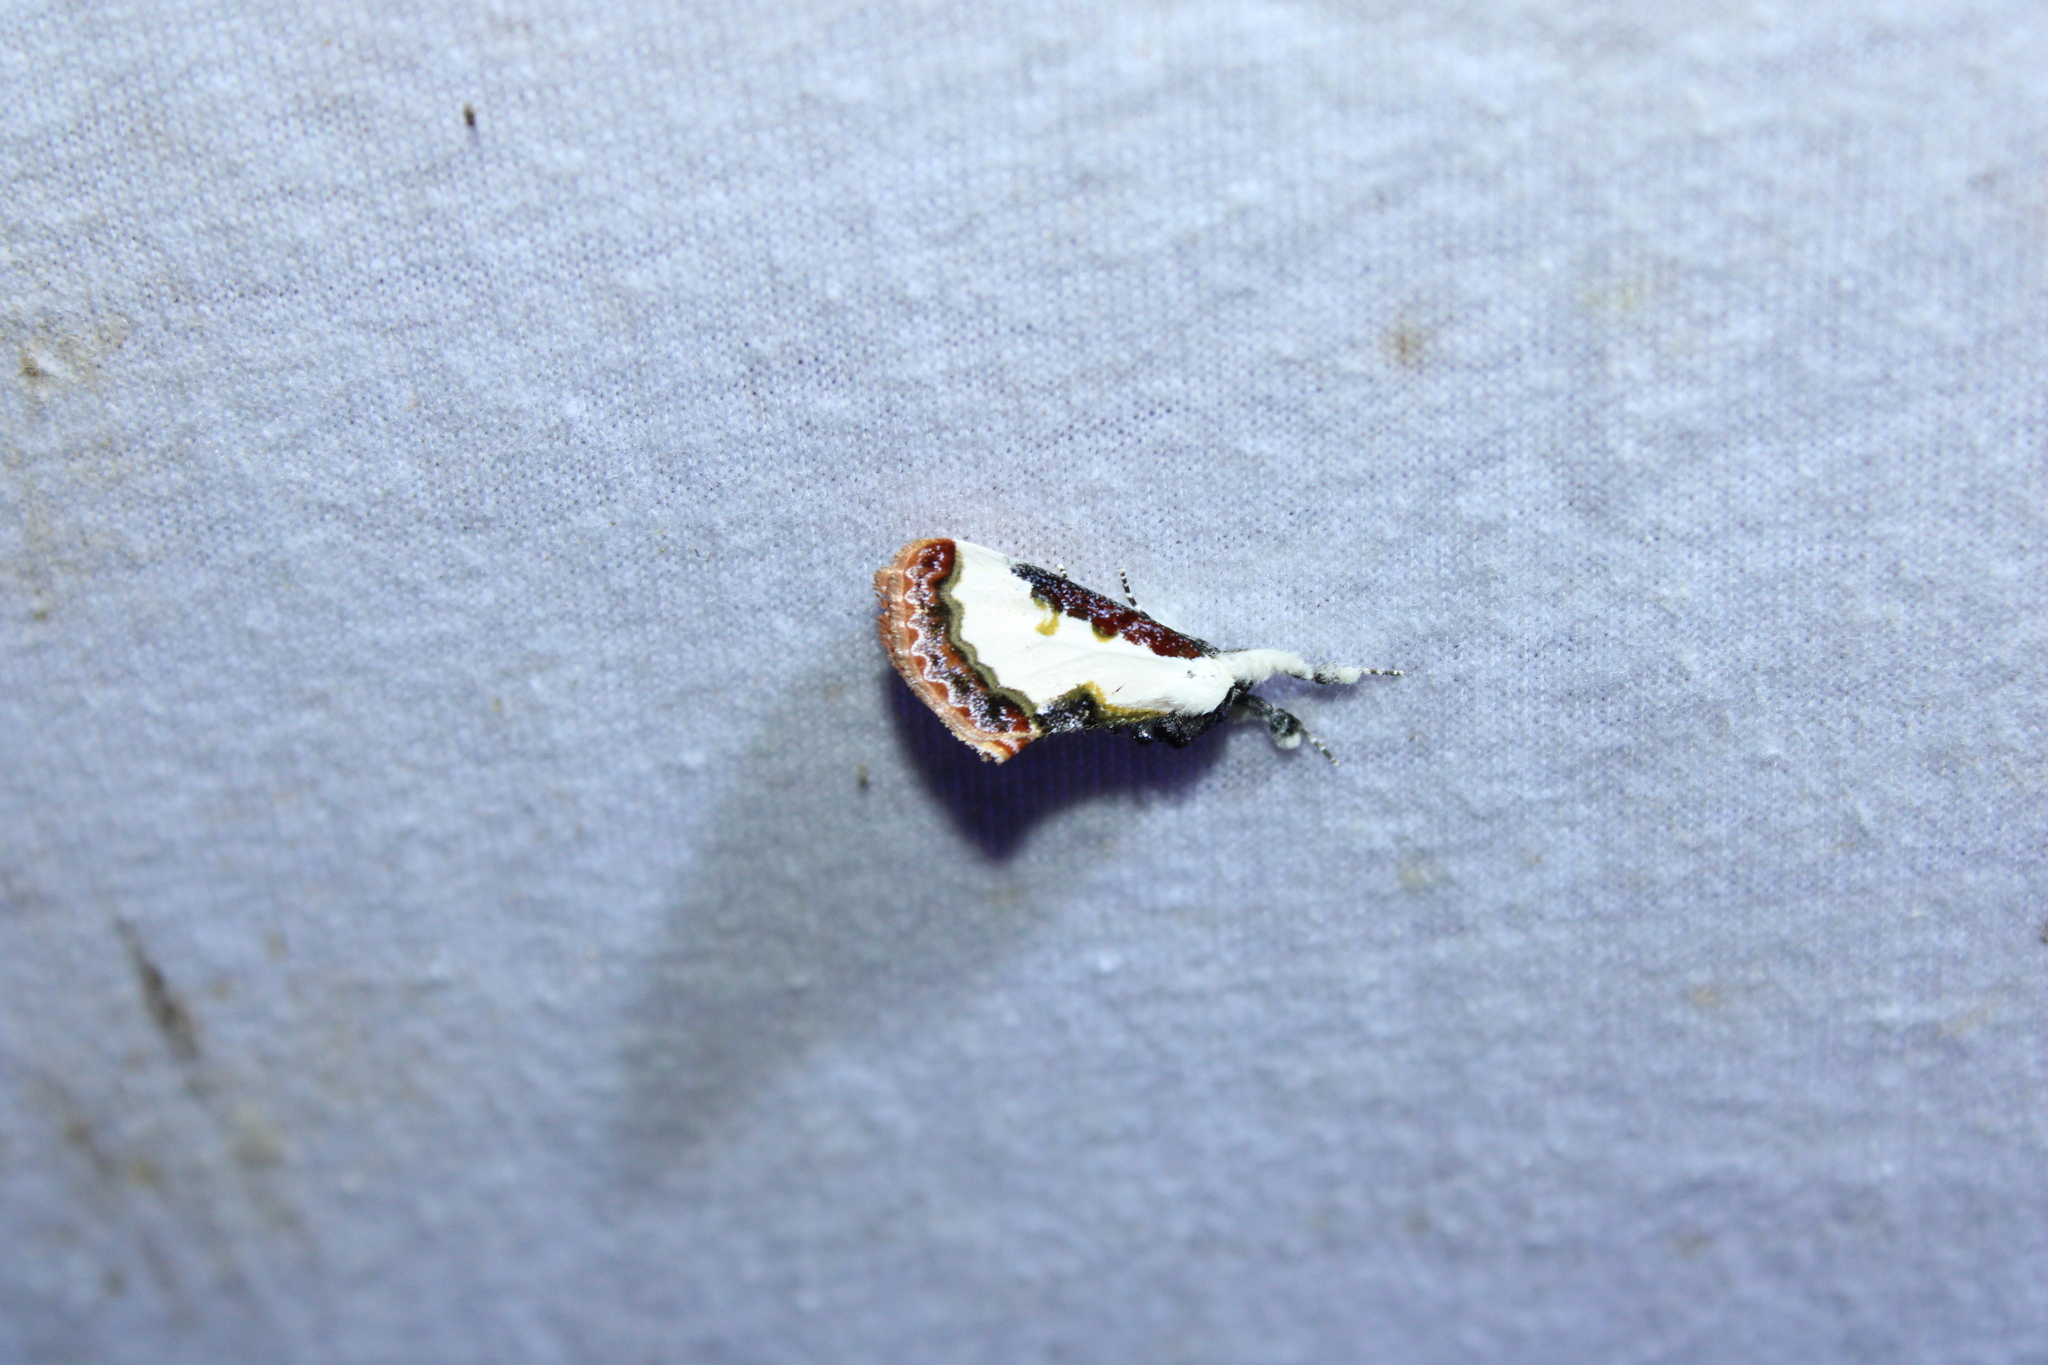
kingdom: Animalia
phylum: Arthropoda
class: Insecta
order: Lepidoptera
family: Noctuidae
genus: Eudryas
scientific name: Eudryas unio
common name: Pearly wood-nymph
